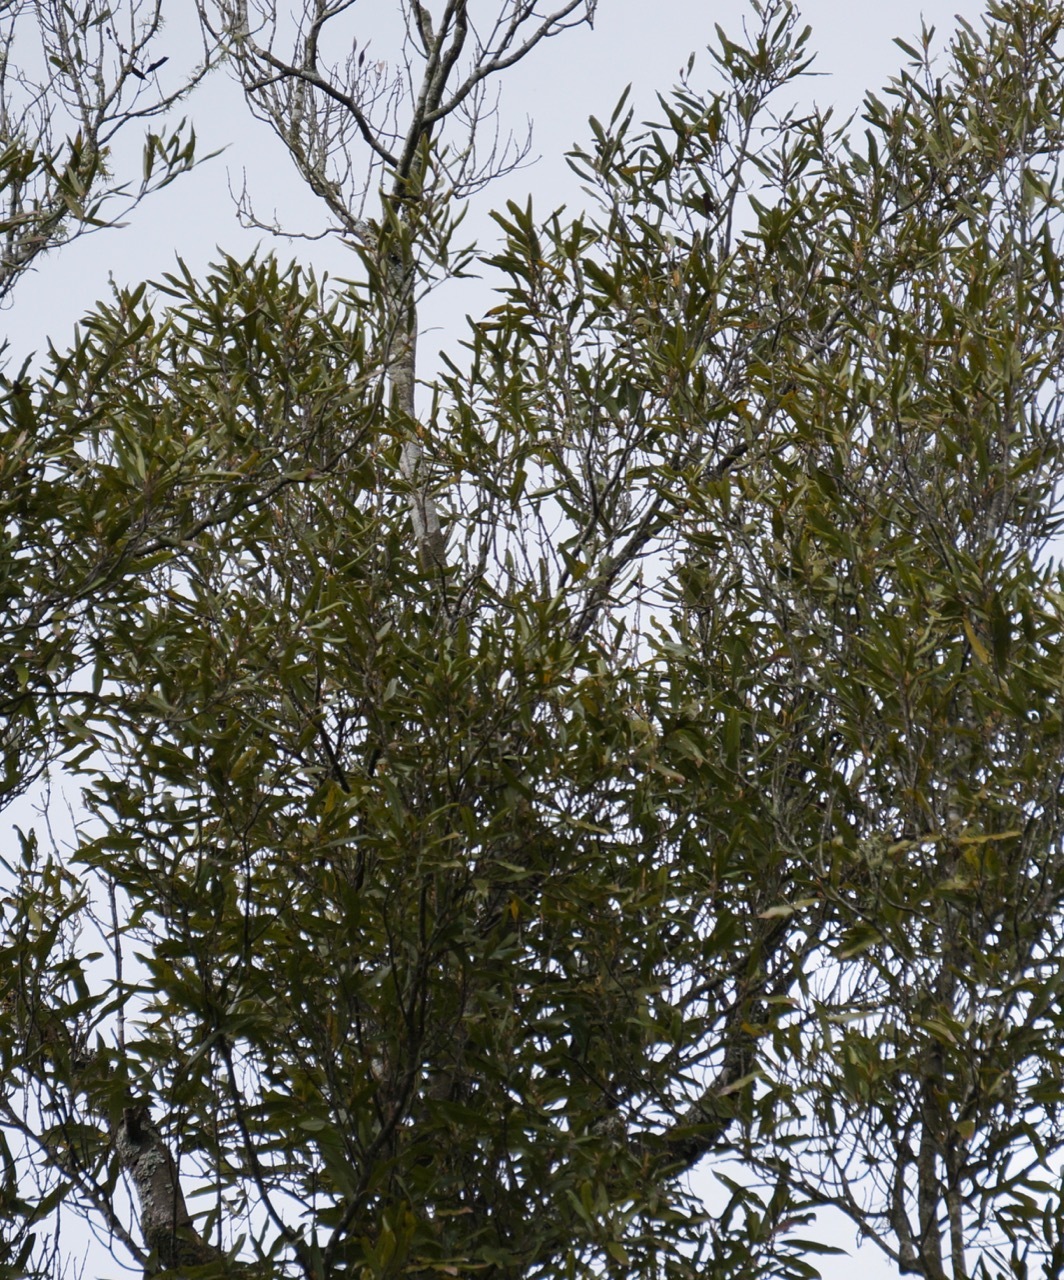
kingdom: Plantae
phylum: Tracheophyta
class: Magnoliopsida
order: Laurales
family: Lauraceae
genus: Beilschmiedia
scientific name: Beilschmiedia tawa
